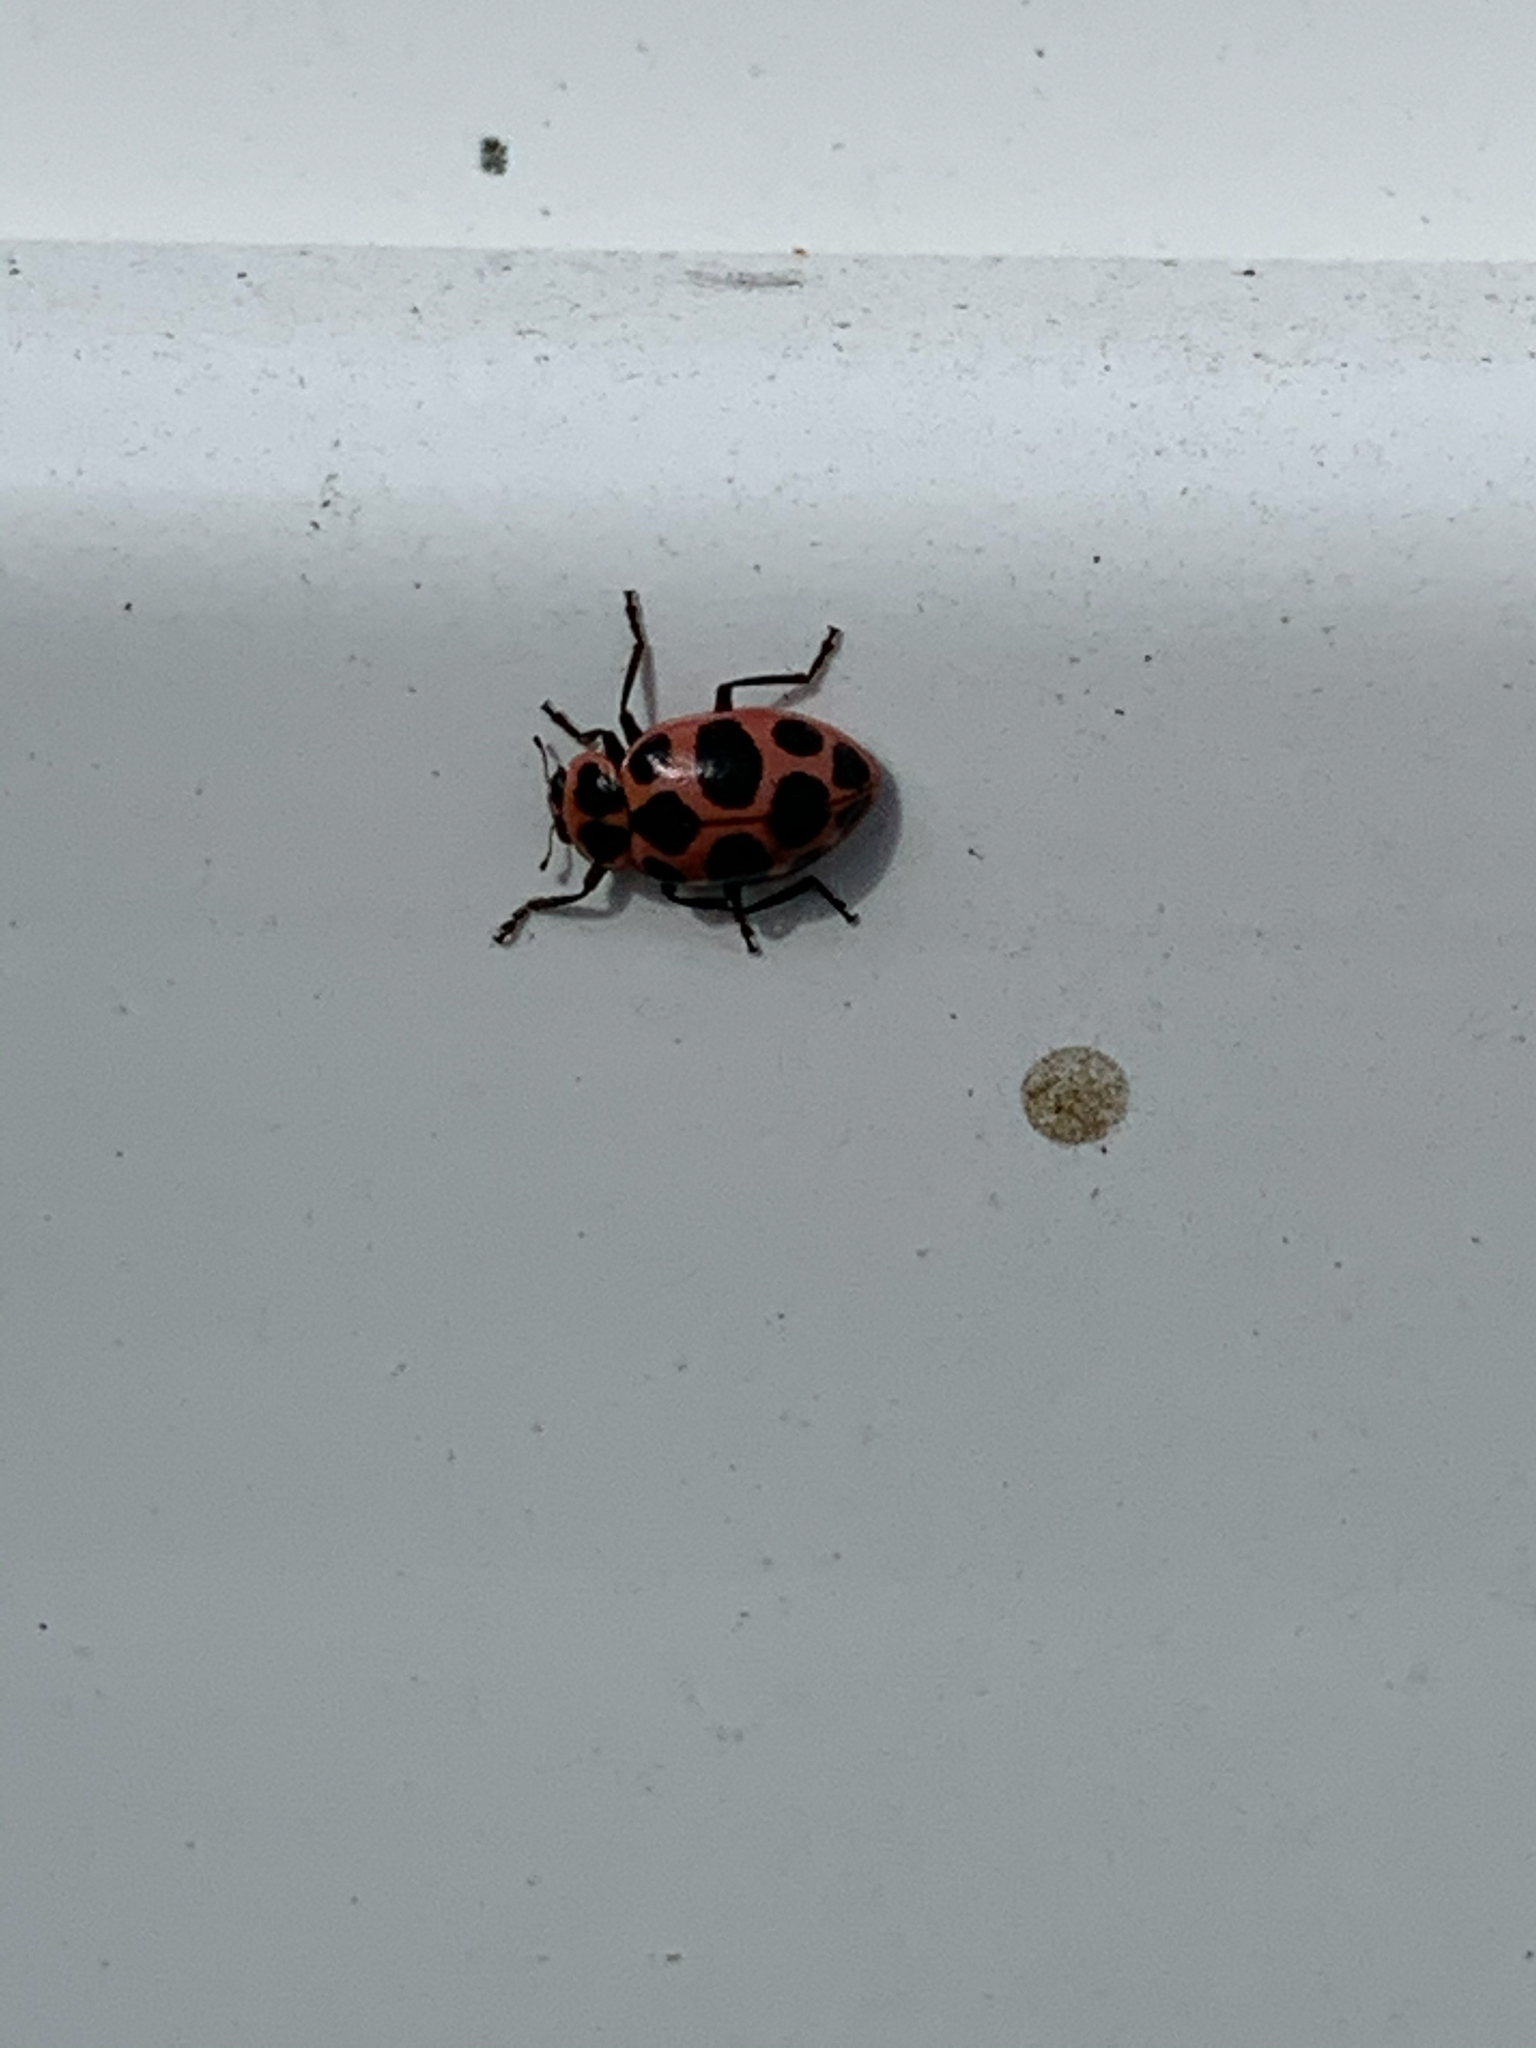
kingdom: Animalia
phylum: Arthropoda
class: Insecta
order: Coleoptera
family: Coccinellidae
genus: Coleomegilla
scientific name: Coleomegilla maculata
